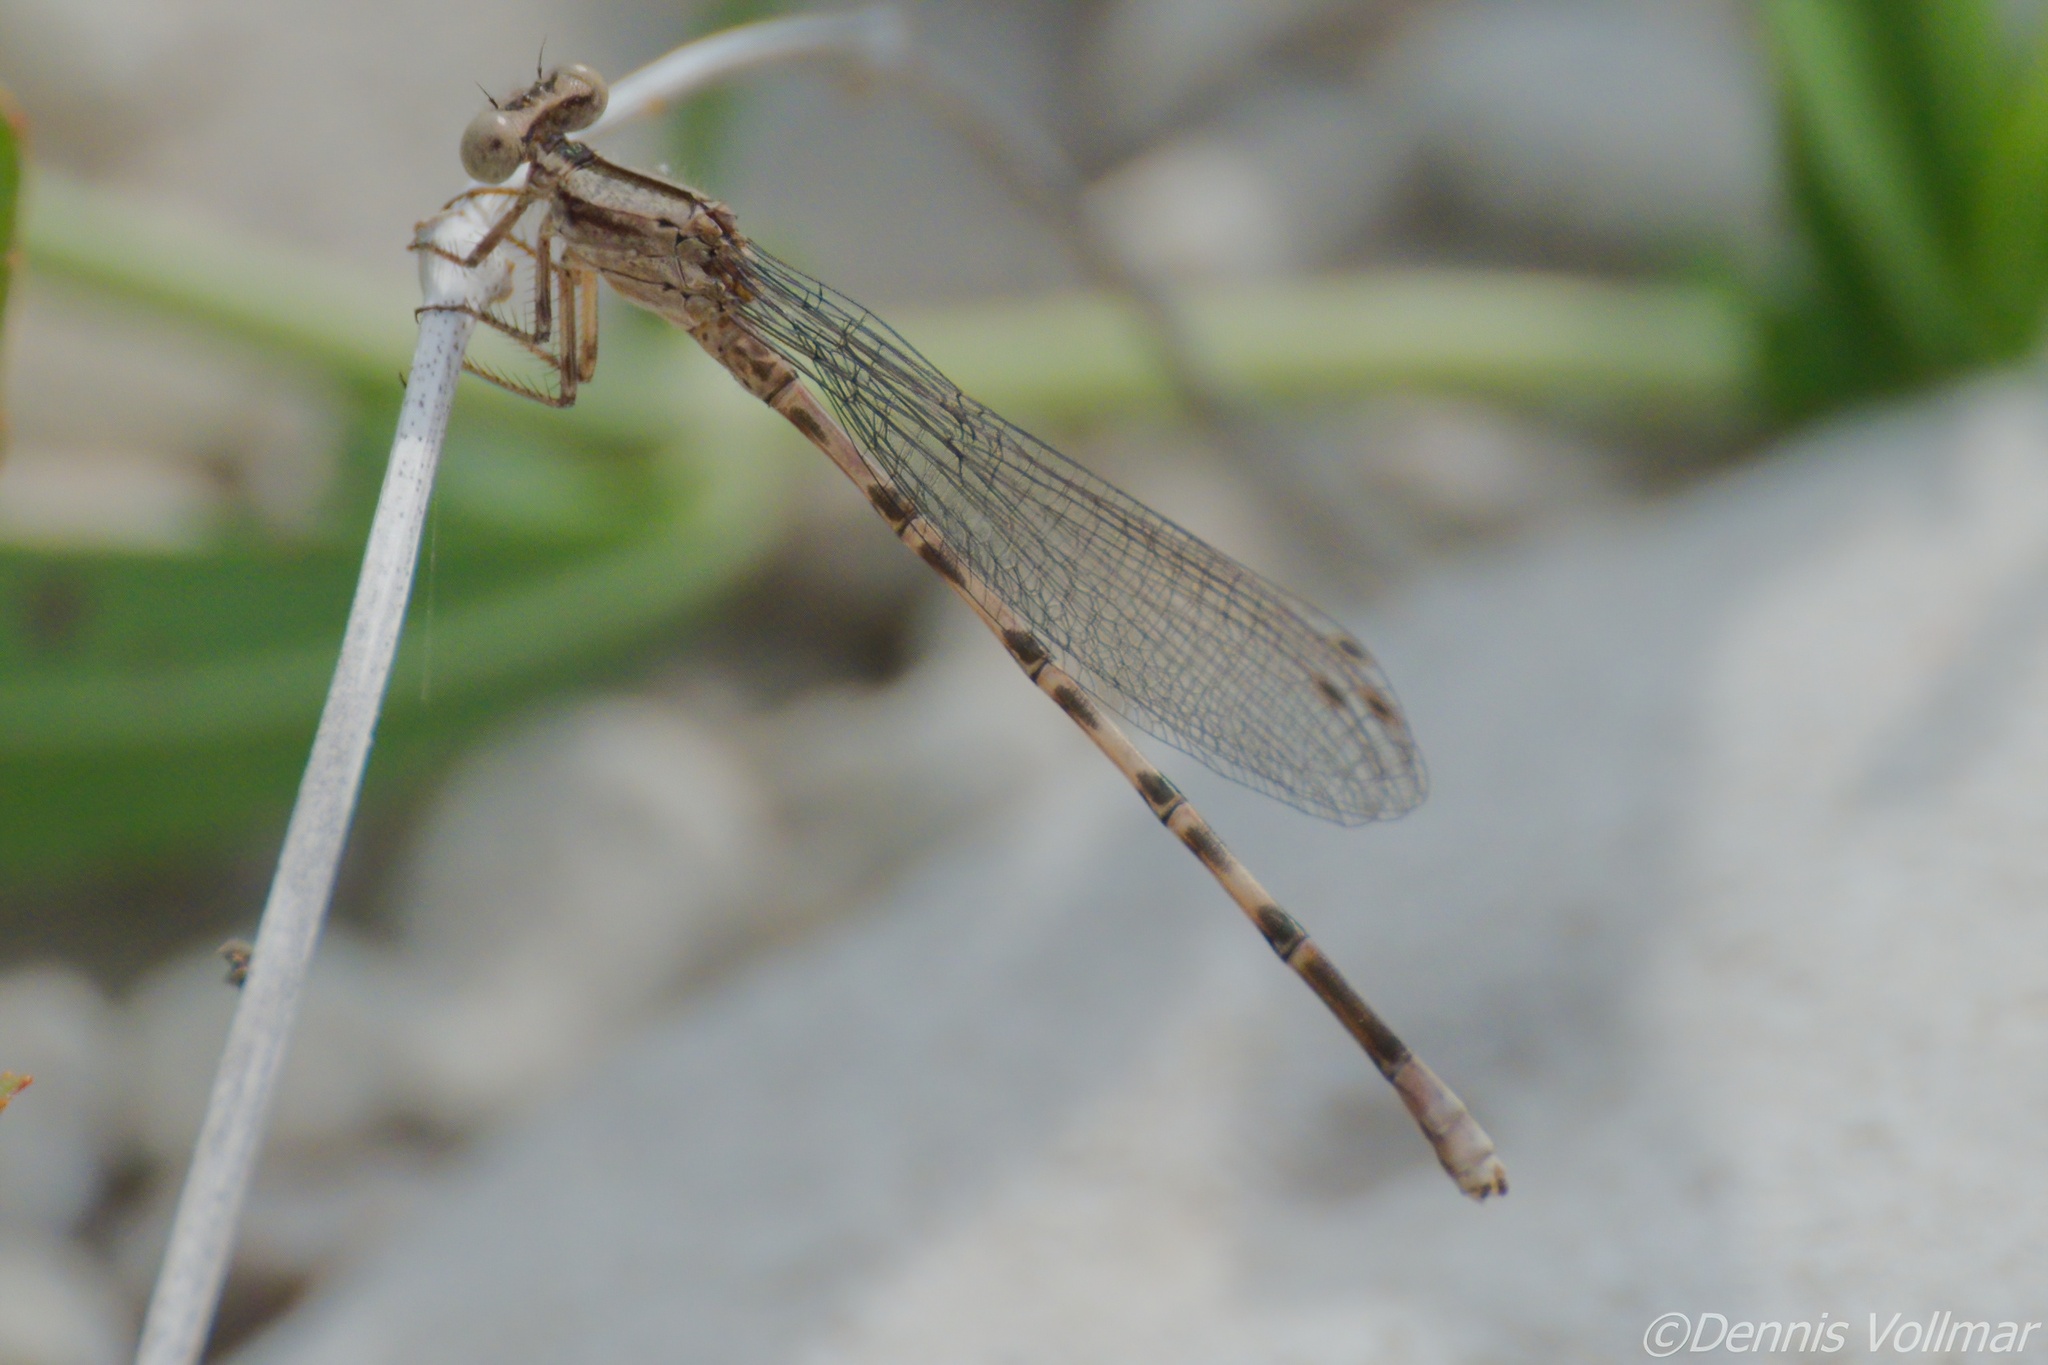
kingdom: Animalia
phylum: Arthropoda
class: Insecta
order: Odonata
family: Coenagrionidae
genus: Argia
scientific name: Argia immunda
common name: Kiowa dancer
